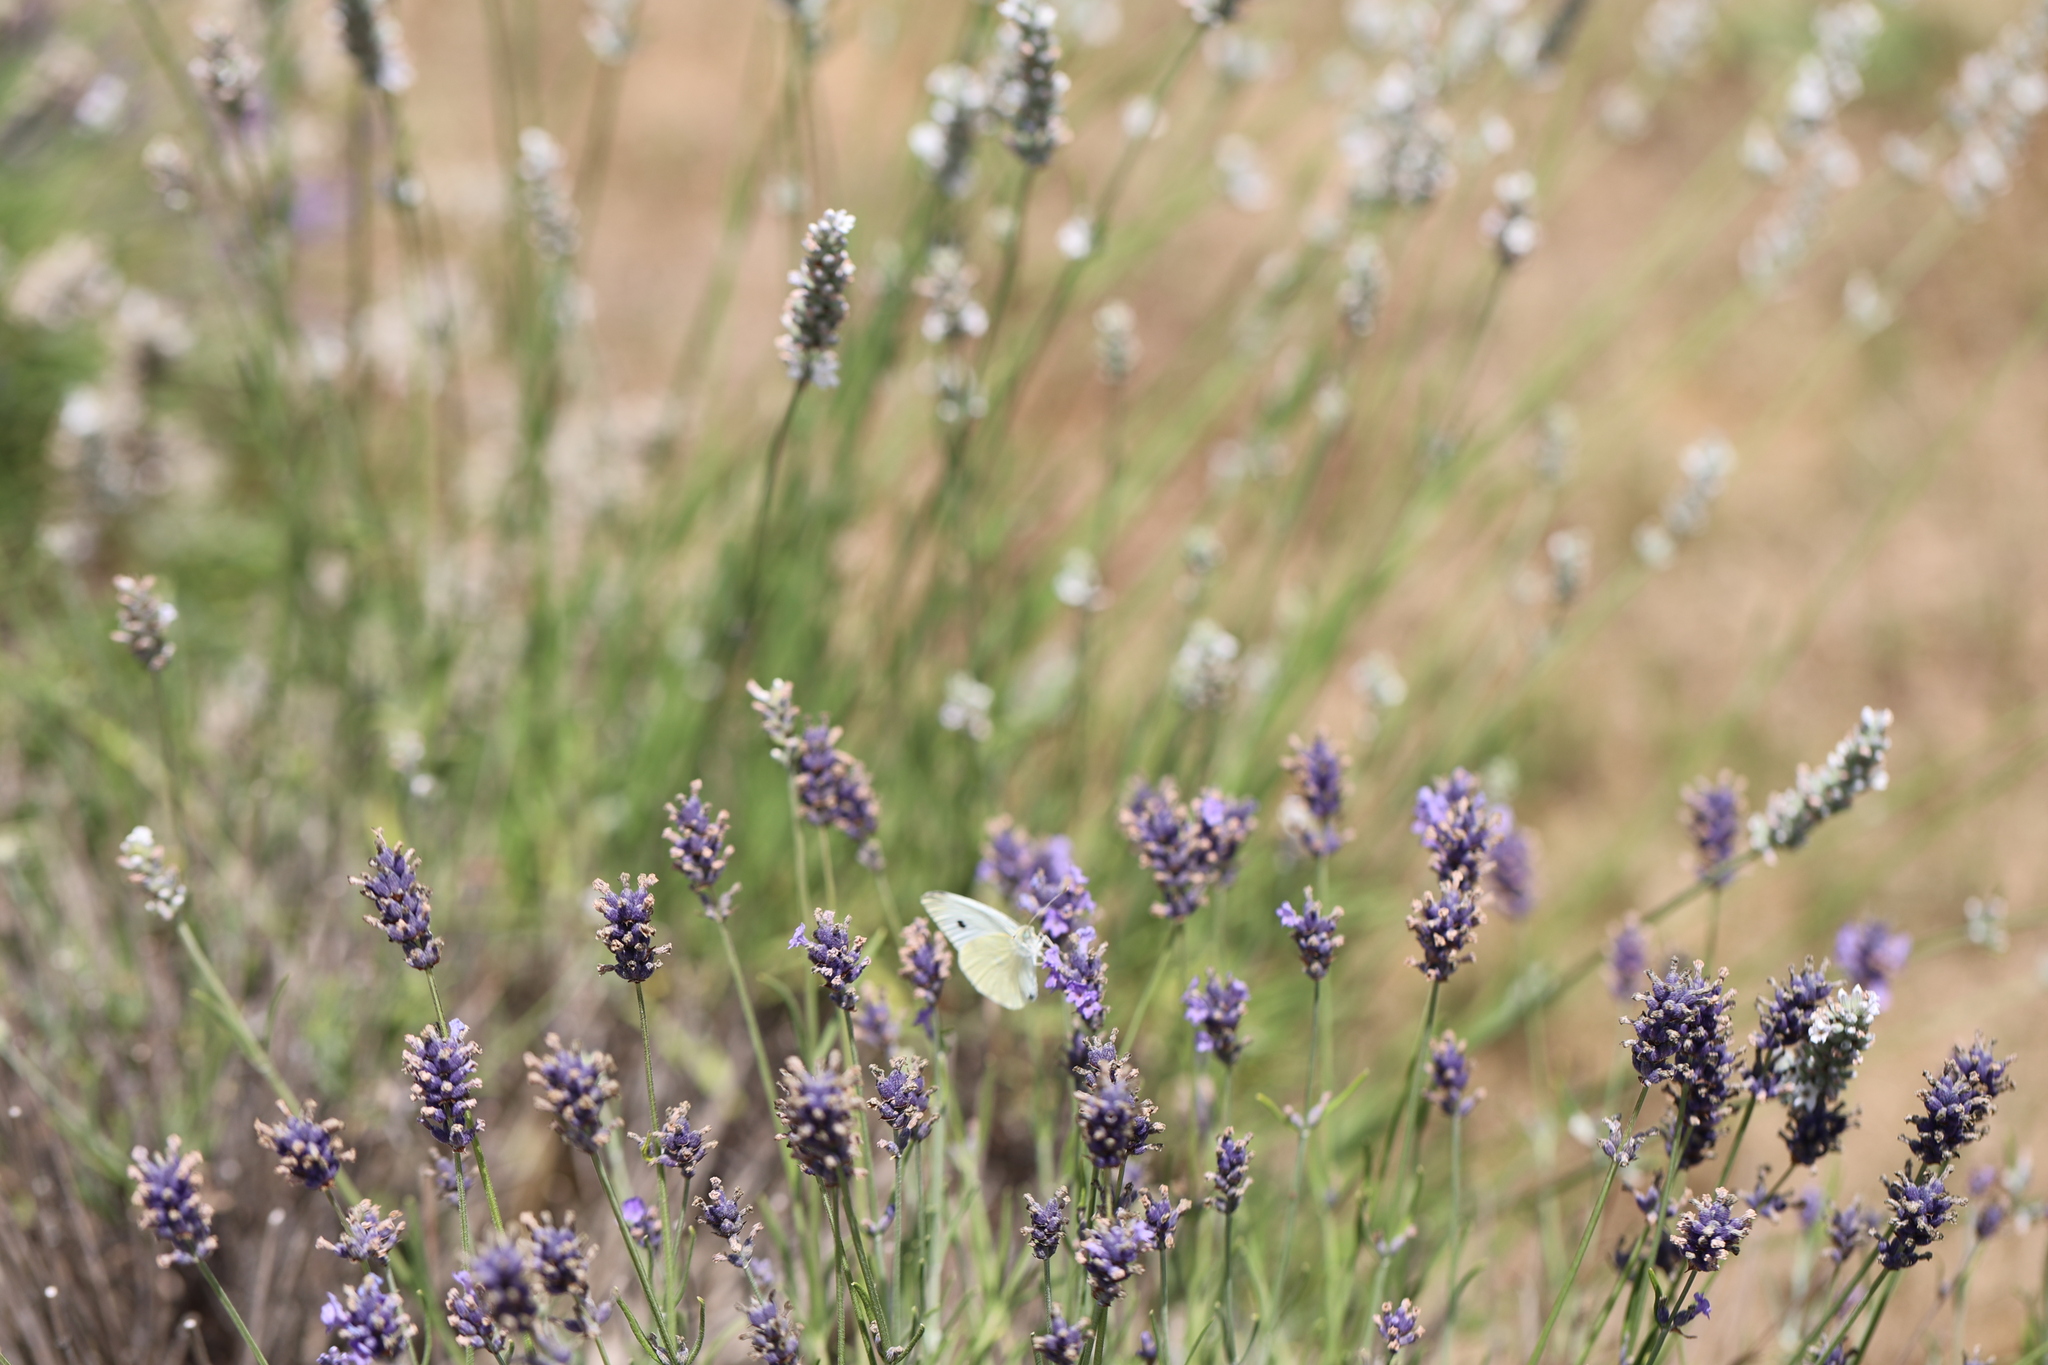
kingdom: Animalia
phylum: Arthropoda
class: Insecta
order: Lepidoptera
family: Pieridae
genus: Pieris
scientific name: Pieris rapae
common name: Small white
